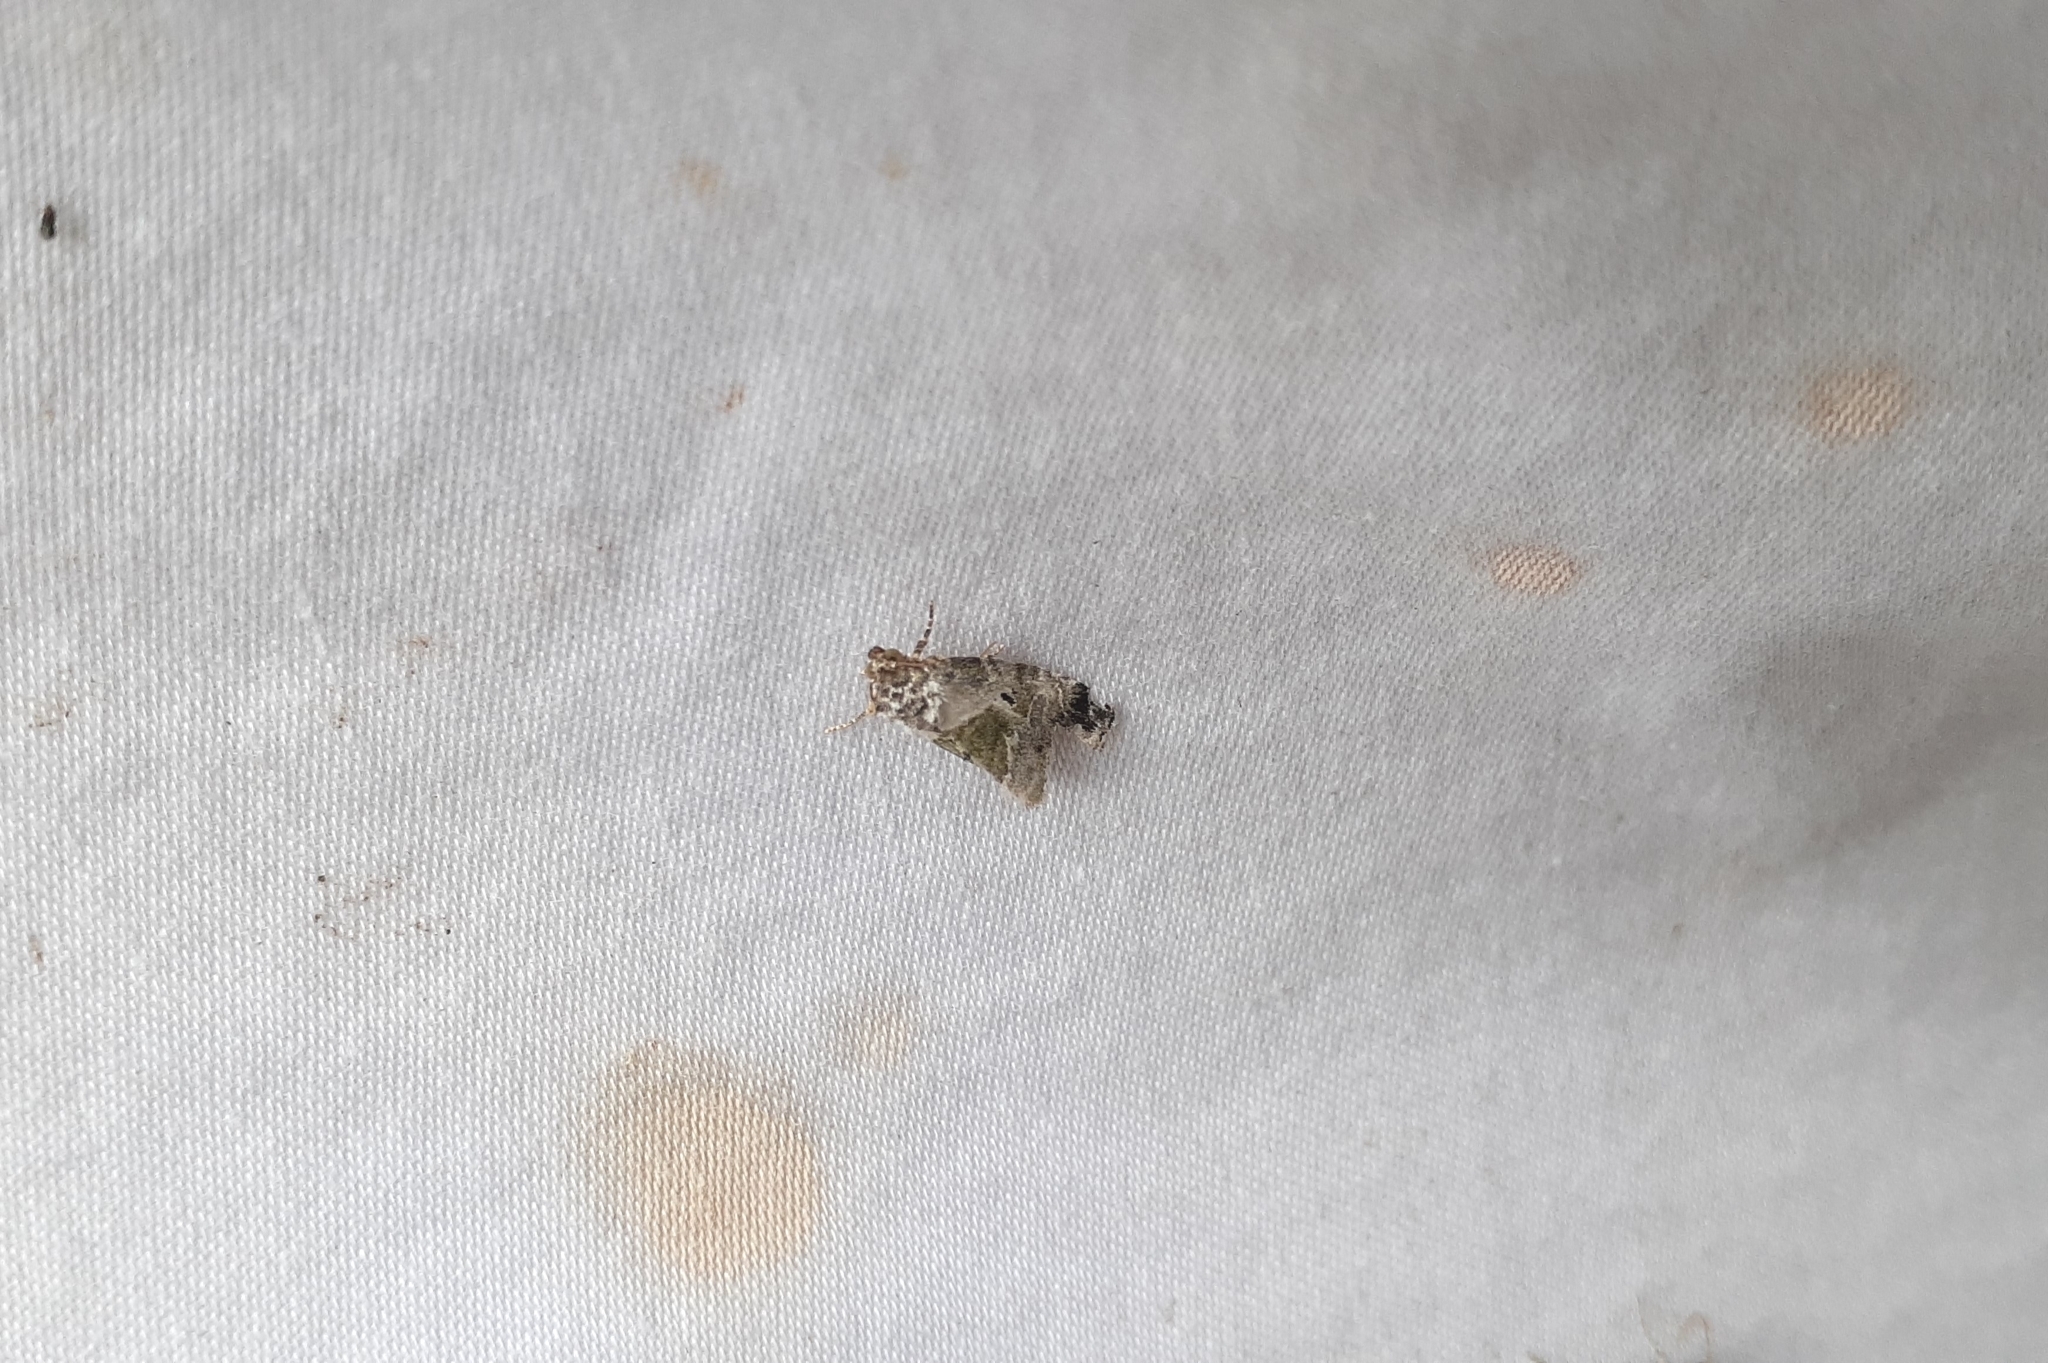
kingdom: Animalia
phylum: Arthropoda
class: Insecta
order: Lepidoptera
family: Noctuidae
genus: Maliattha
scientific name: Maliattha synochitis
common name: Black-dotted glyph
